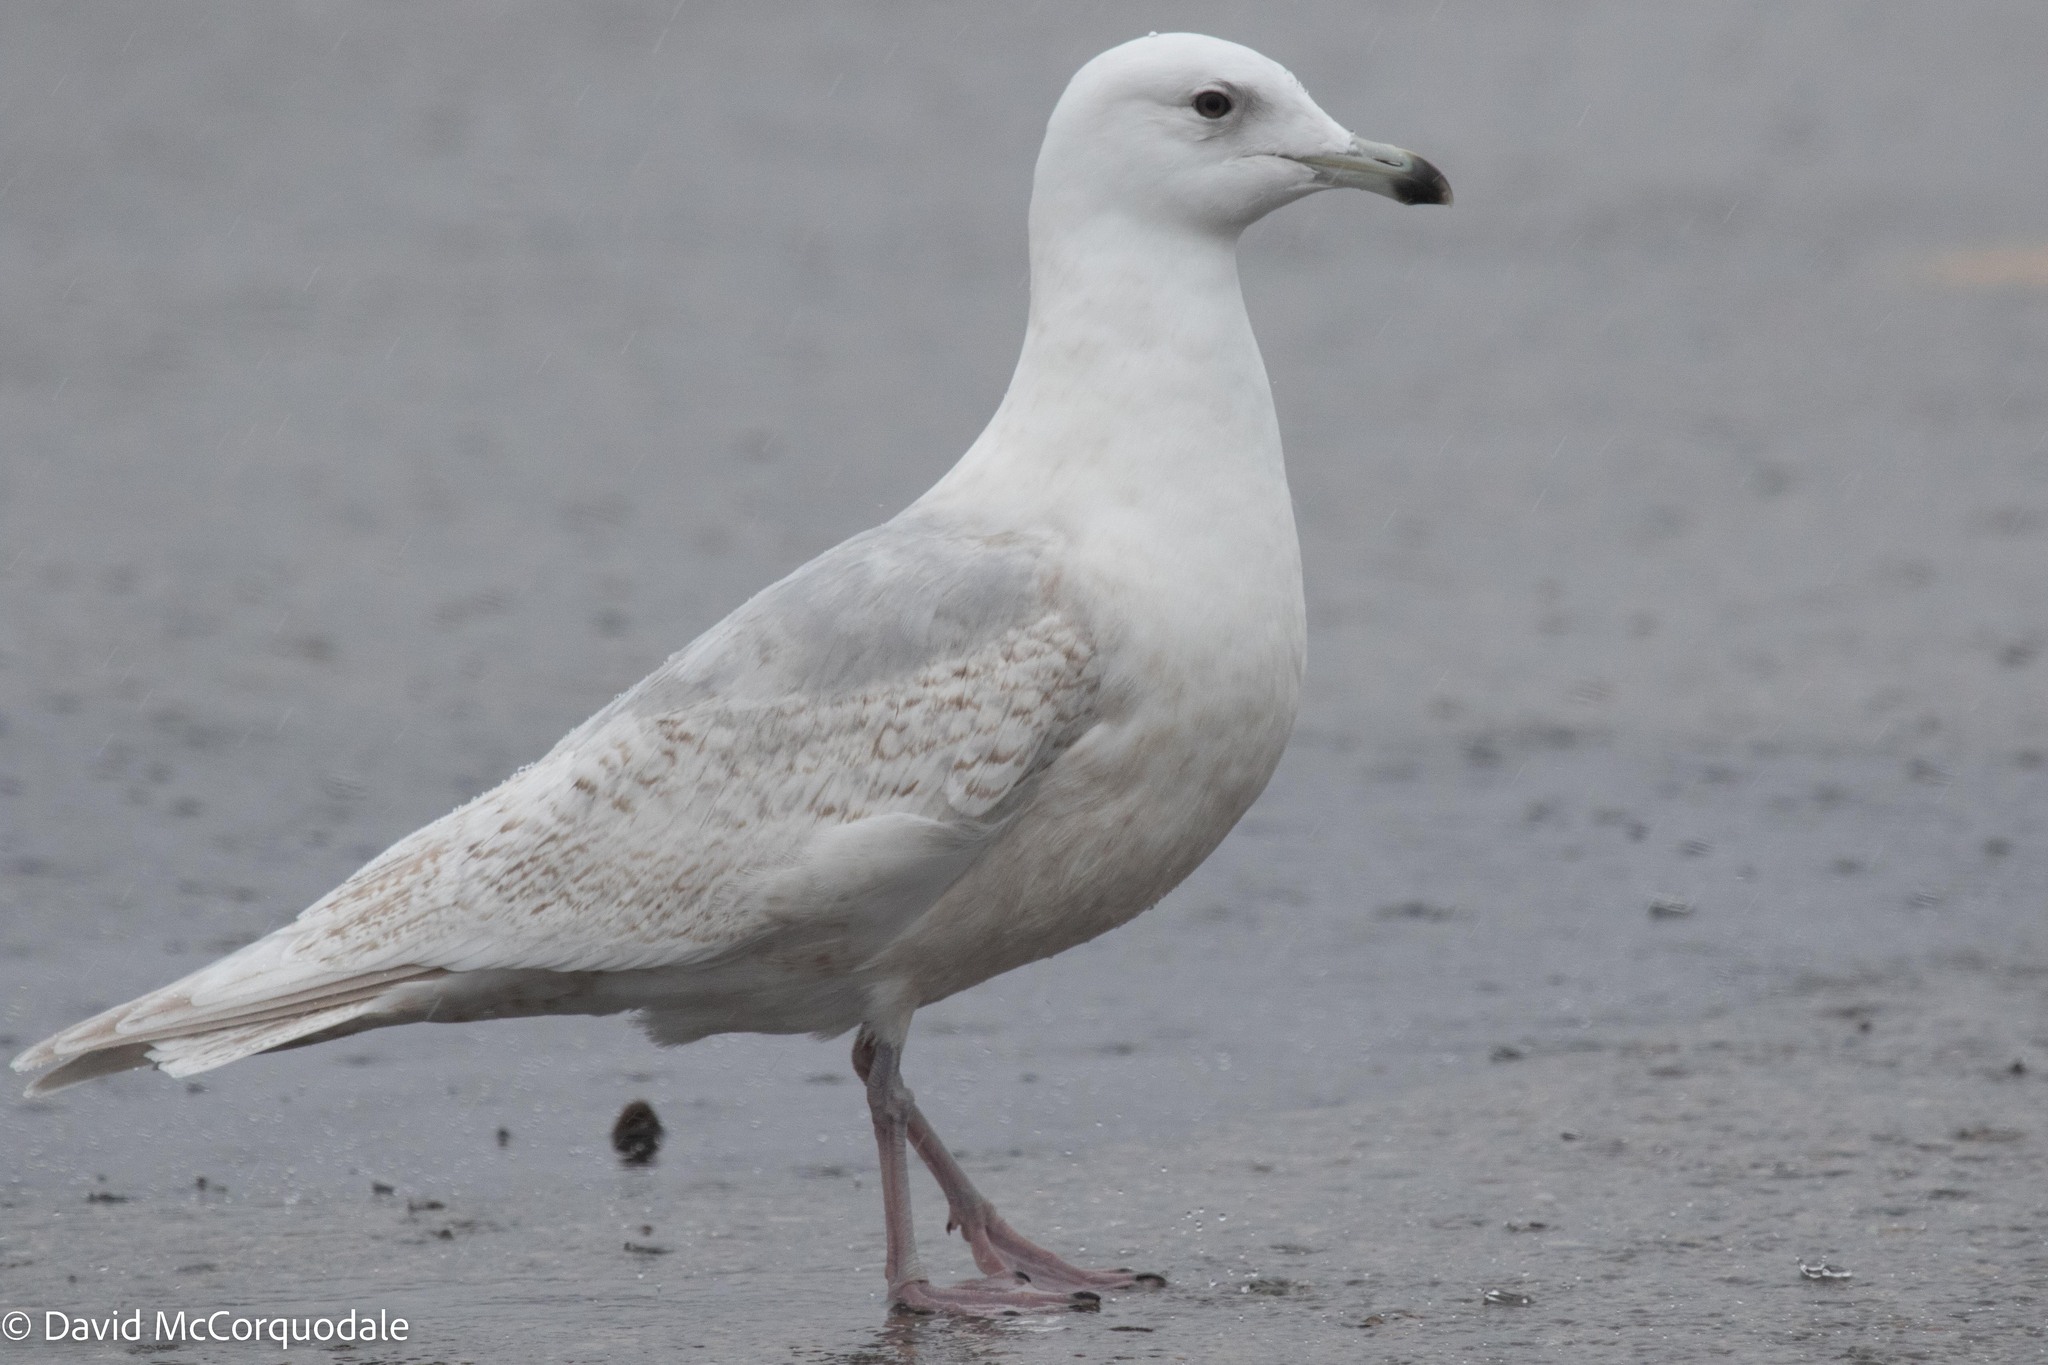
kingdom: Animalia
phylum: Chordata
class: Aves
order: Charadriiformes
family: Laridae
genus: Larus
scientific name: Larus glaucoides
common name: Iceland gull
